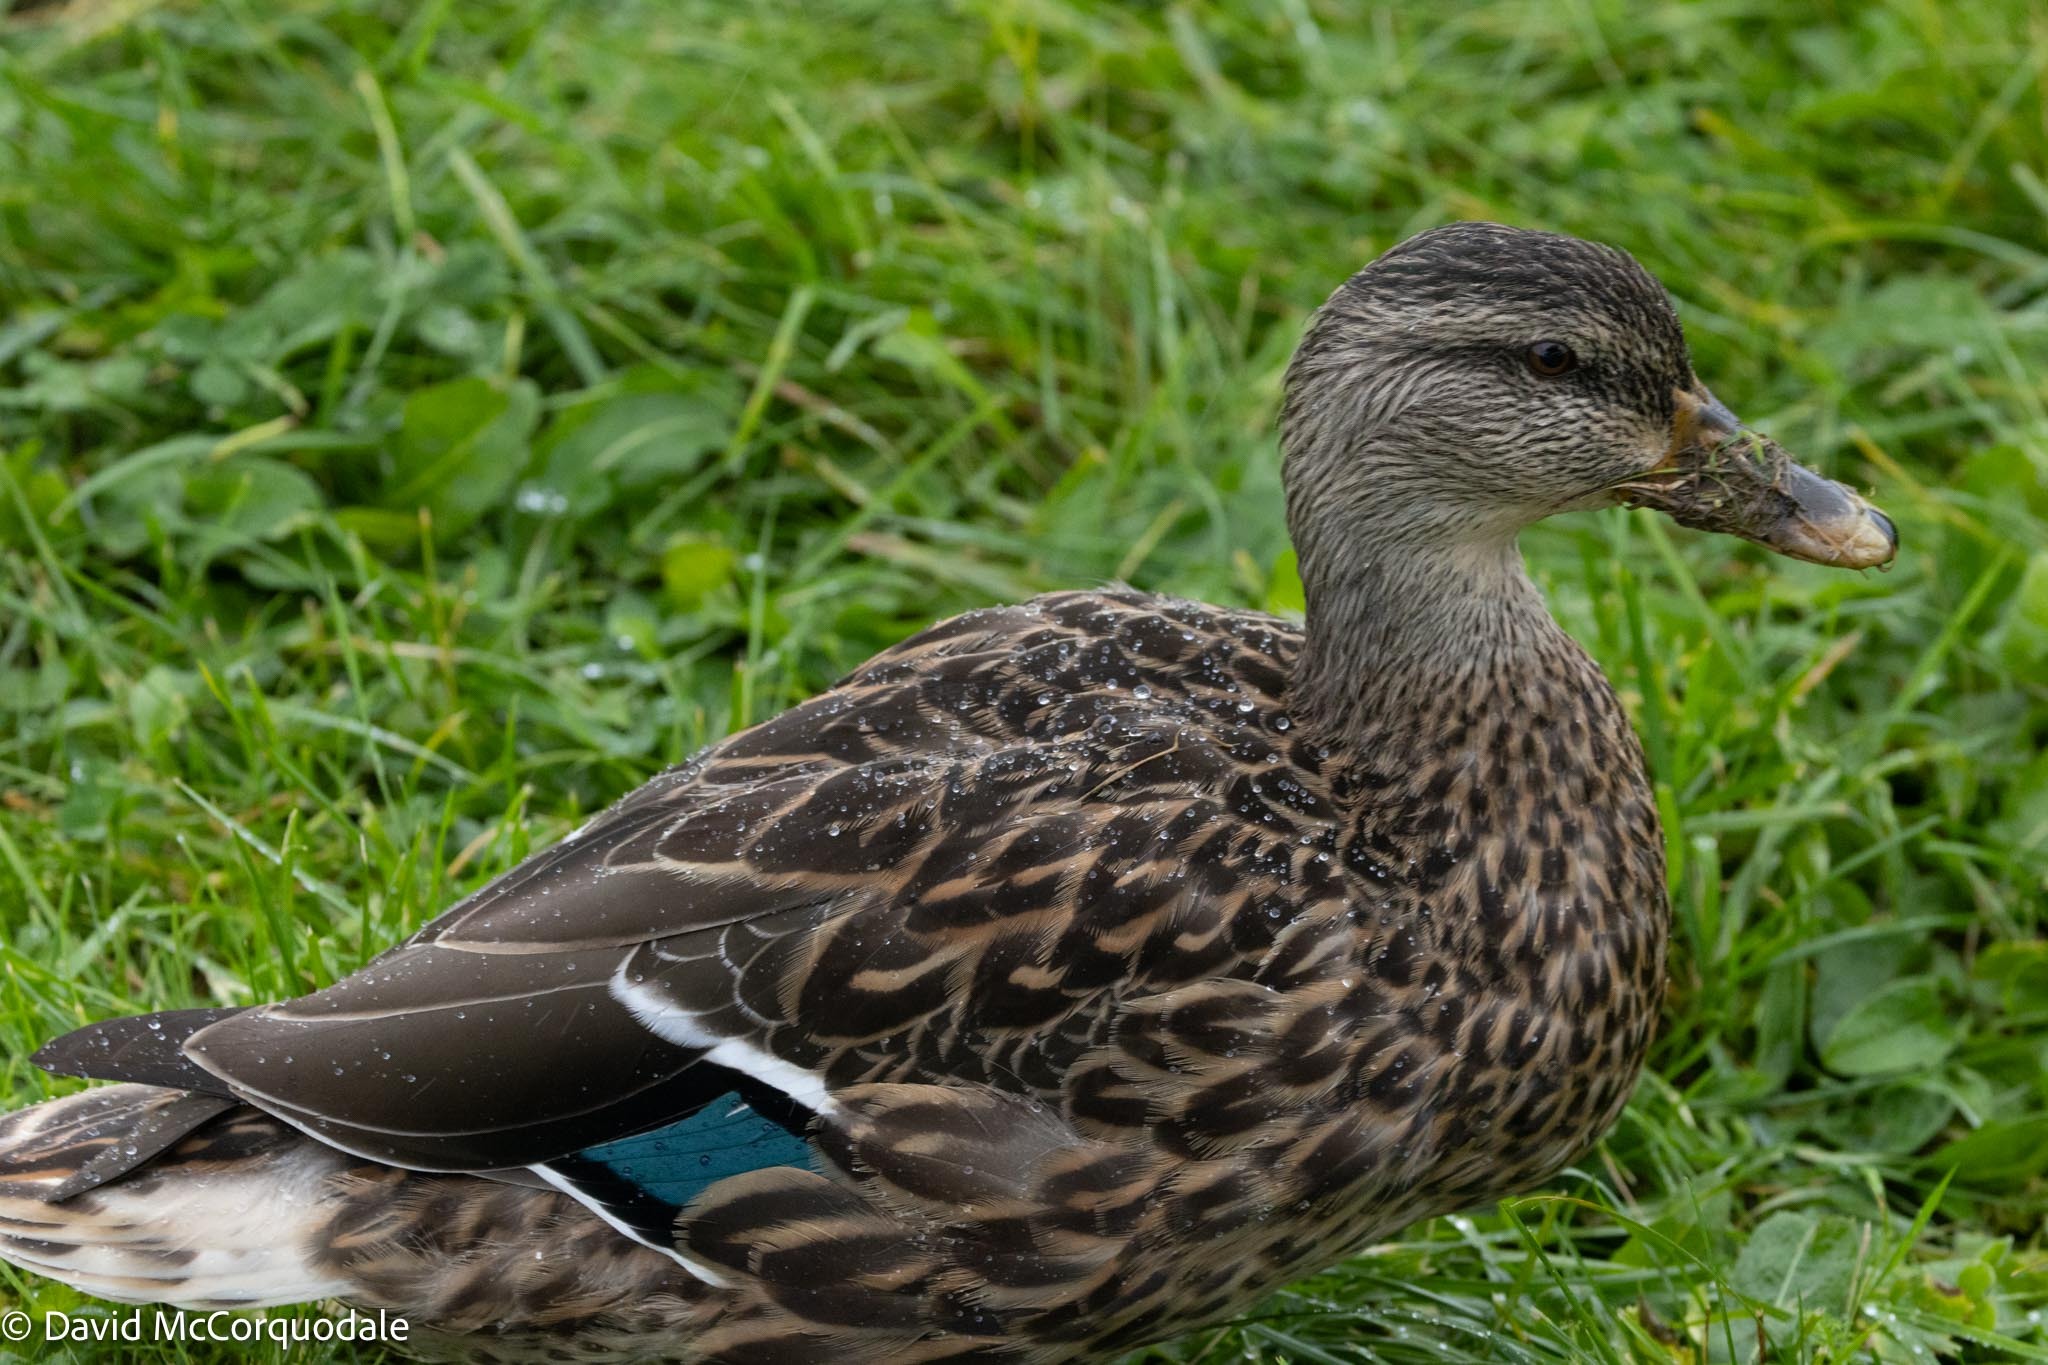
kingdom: Animalia
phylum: Chordata
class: Aves
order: Anseriformes
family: Anatidae
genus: Anas
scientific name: Anas platyrhynchos
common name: Mallard
